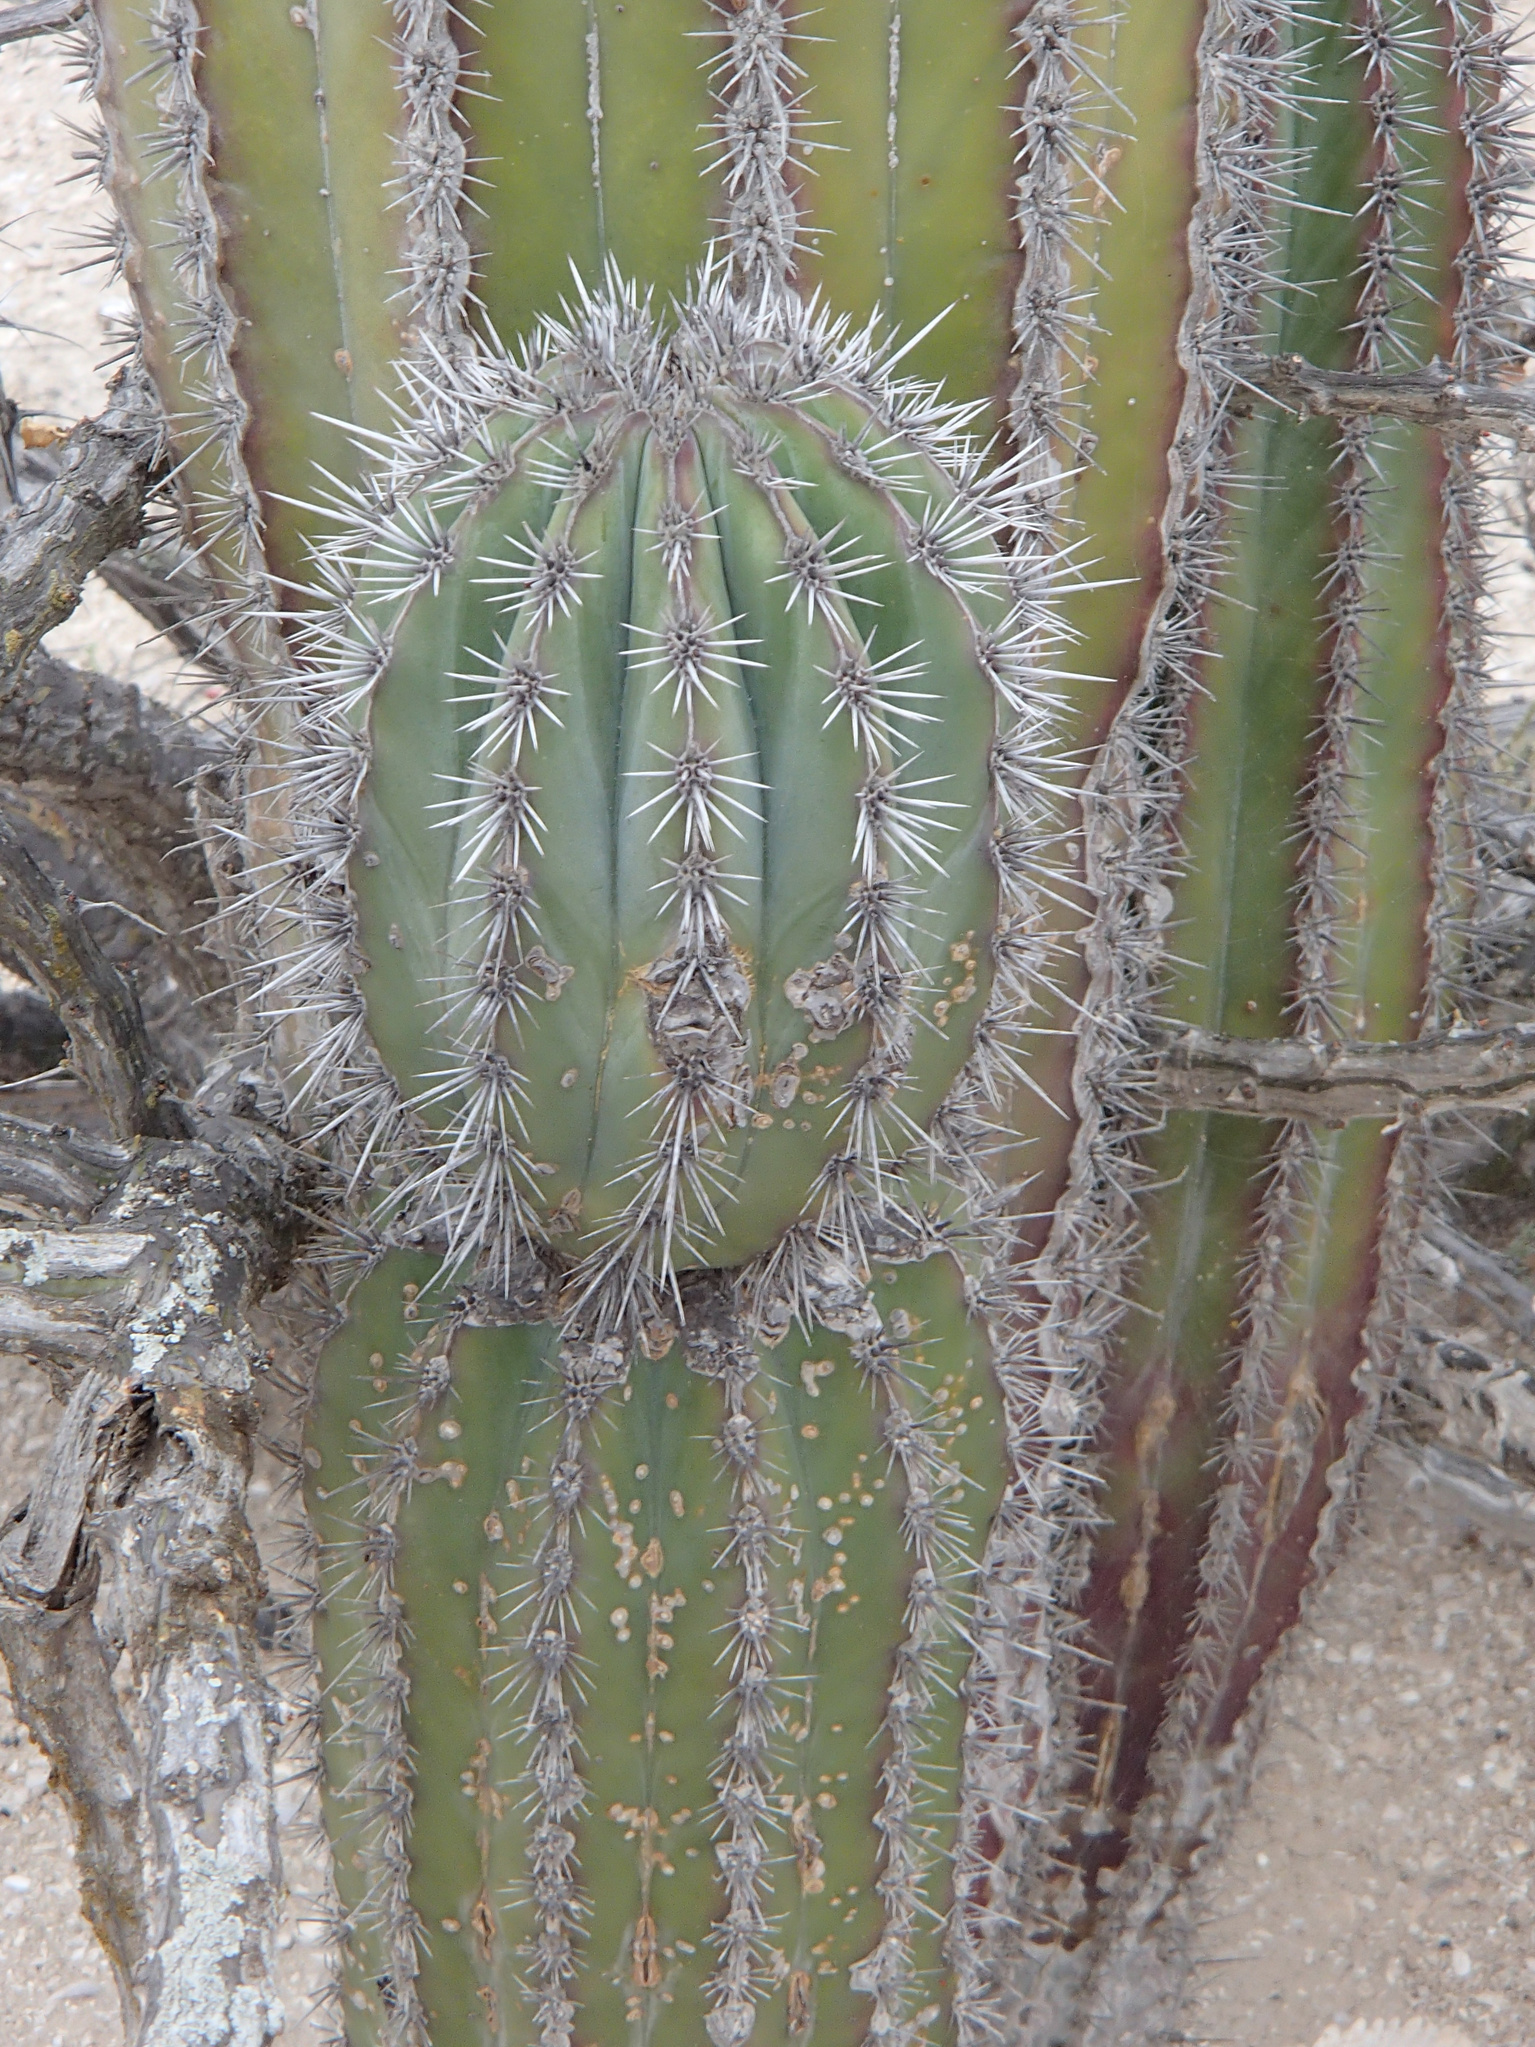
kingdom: Plantae
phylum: Tracheophyta
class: Magnoliopsida
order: Caryophyllales
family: Cactaceae
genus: Pachycereus
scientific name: Pachycereus pringlei
